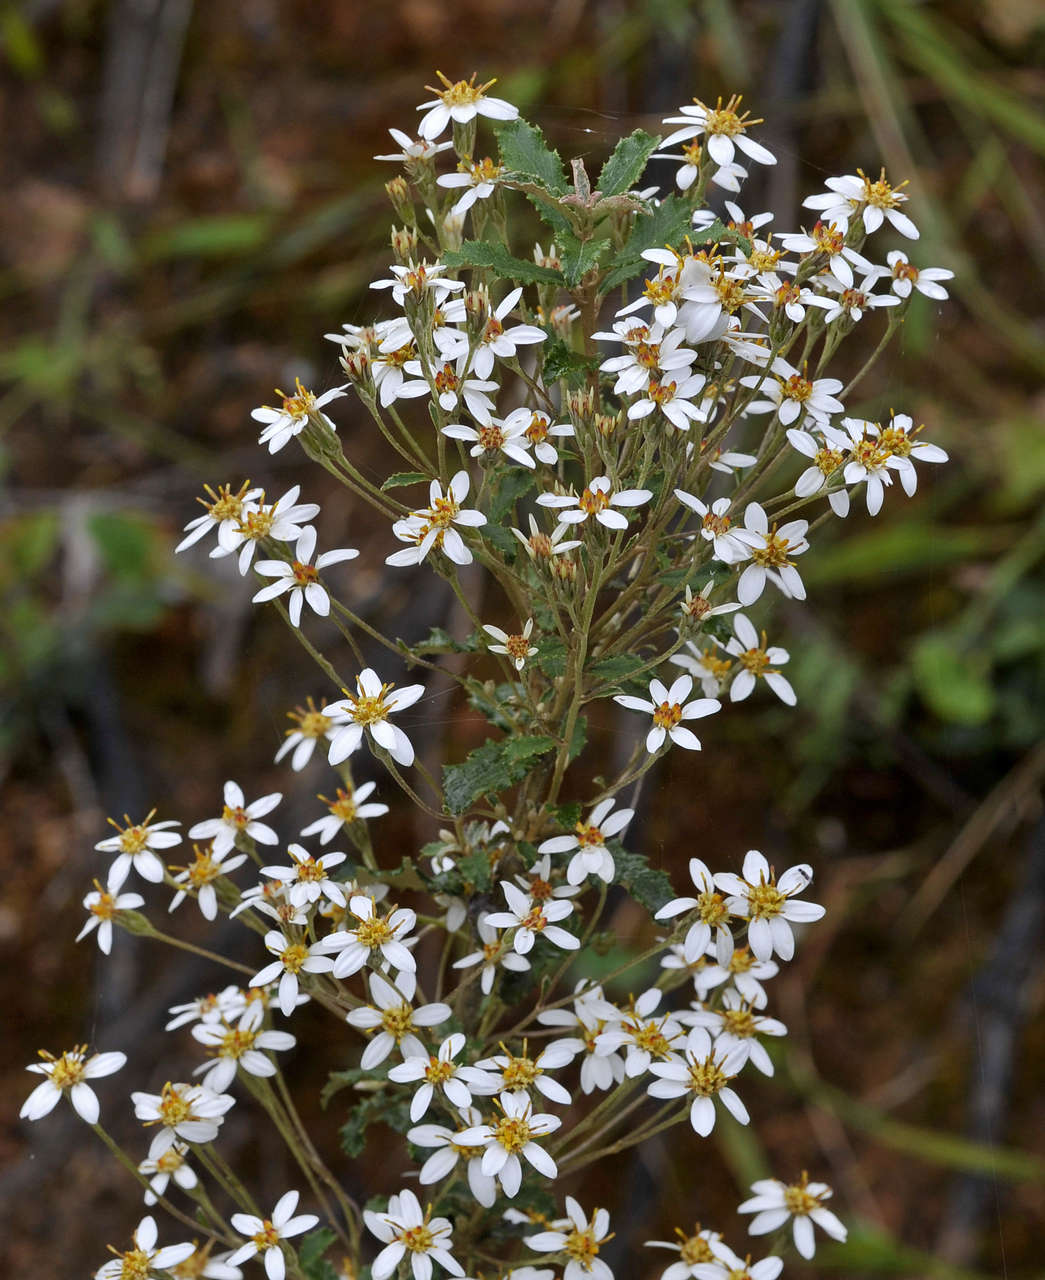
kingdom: Plantae
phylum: Tracheophyta
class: Magnoliopsida
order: Asterales
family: Asteraceae
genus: Olearia
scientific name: Olearia erubescens
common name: Moth daisybush
